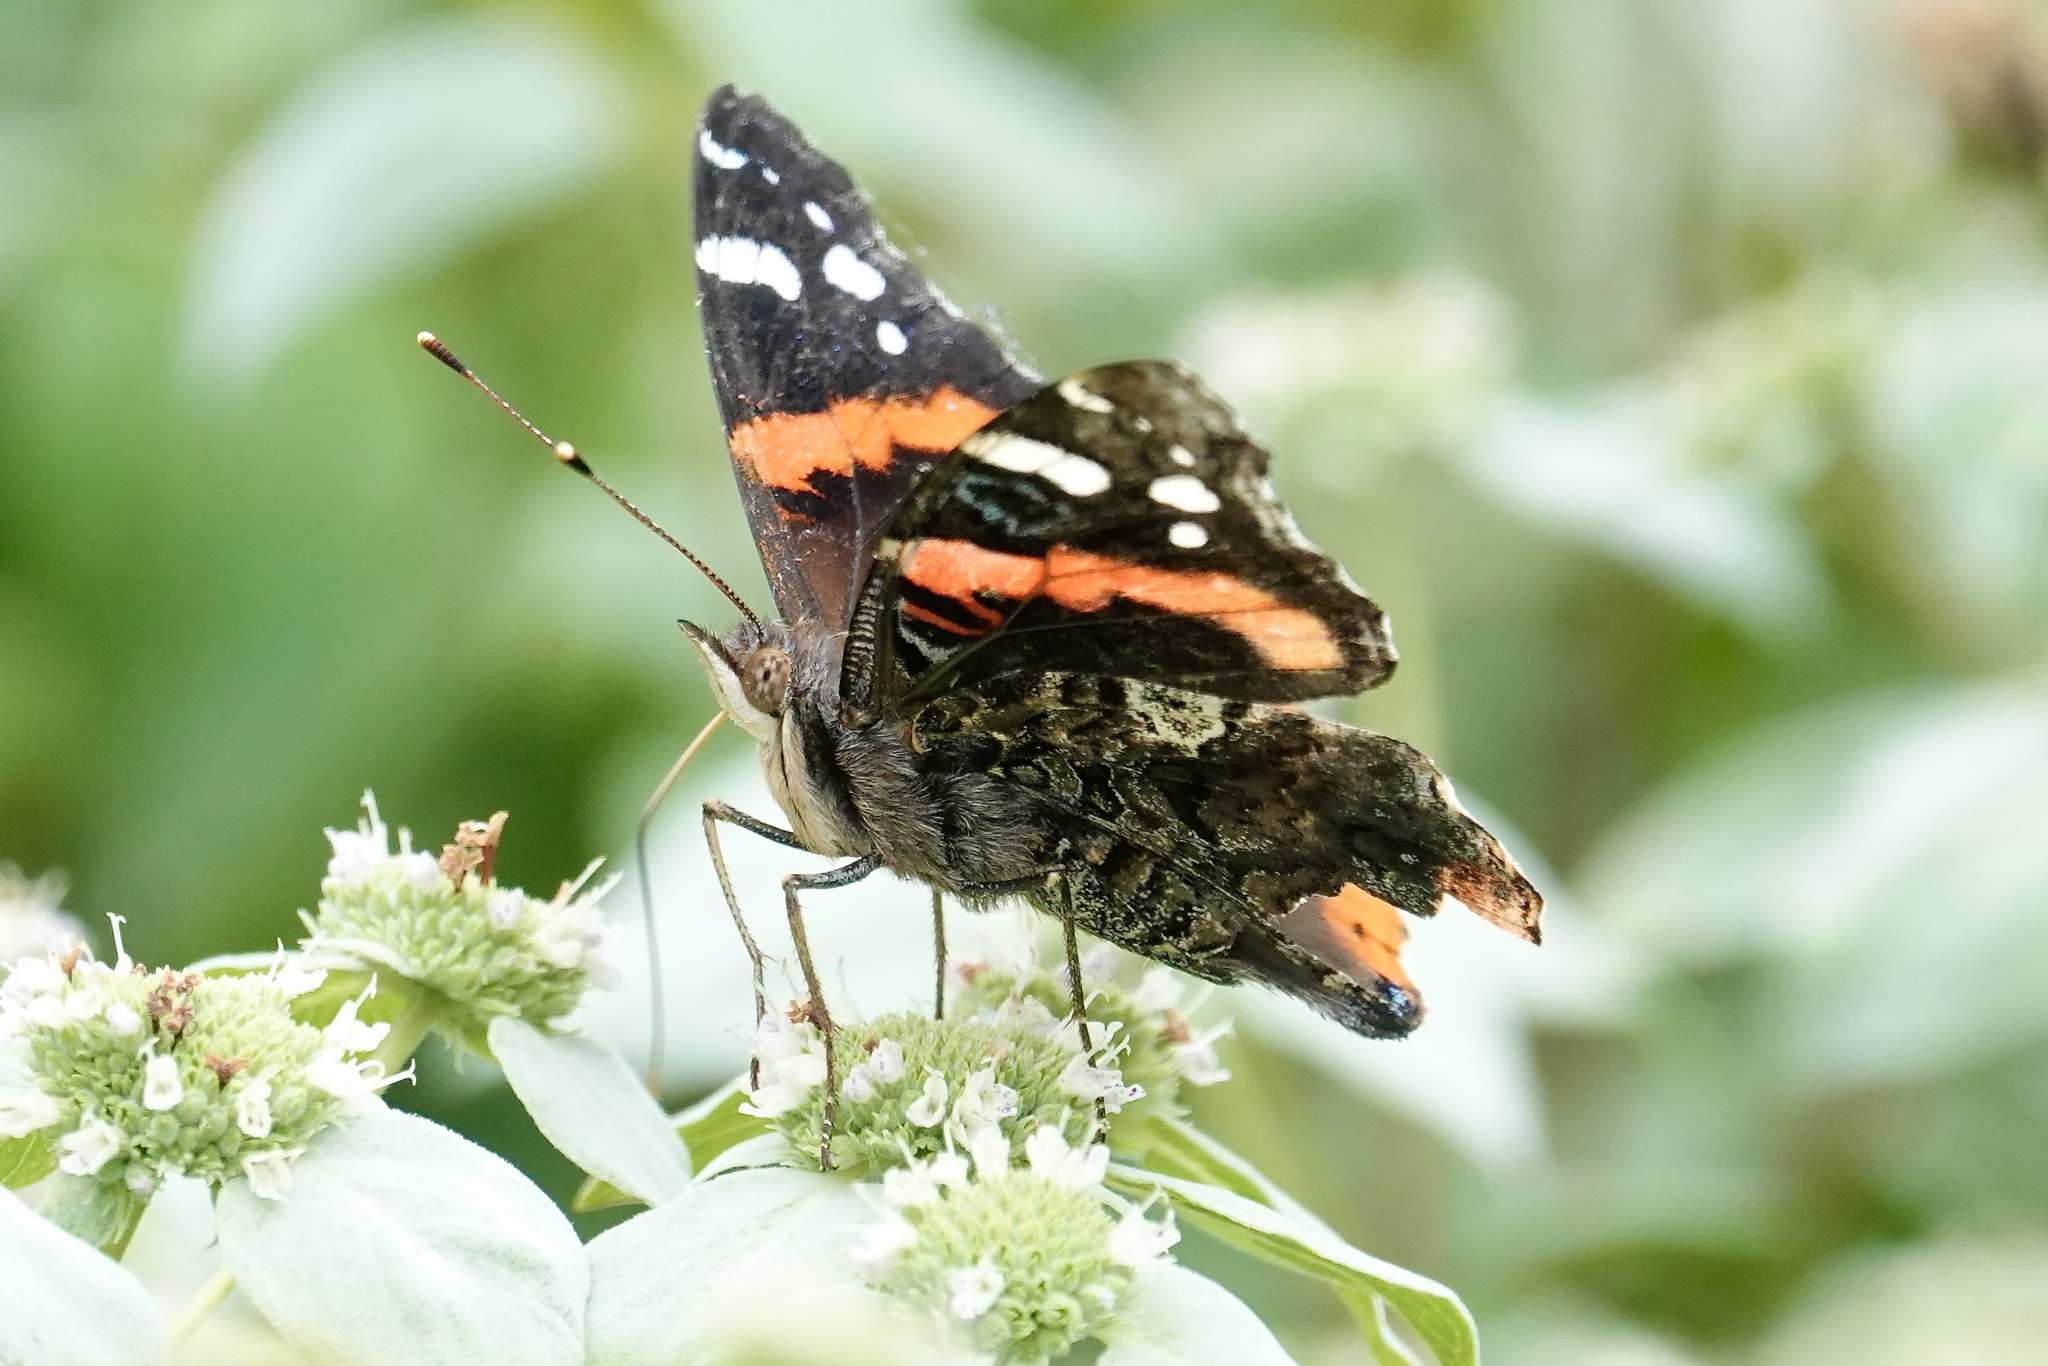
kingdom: Animalia
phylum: Arthropoda
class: Insecta
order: Lepidoptera
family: Nymphalidae
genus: Vanessa
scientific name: Vanessa atalanta
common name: Red admiral
